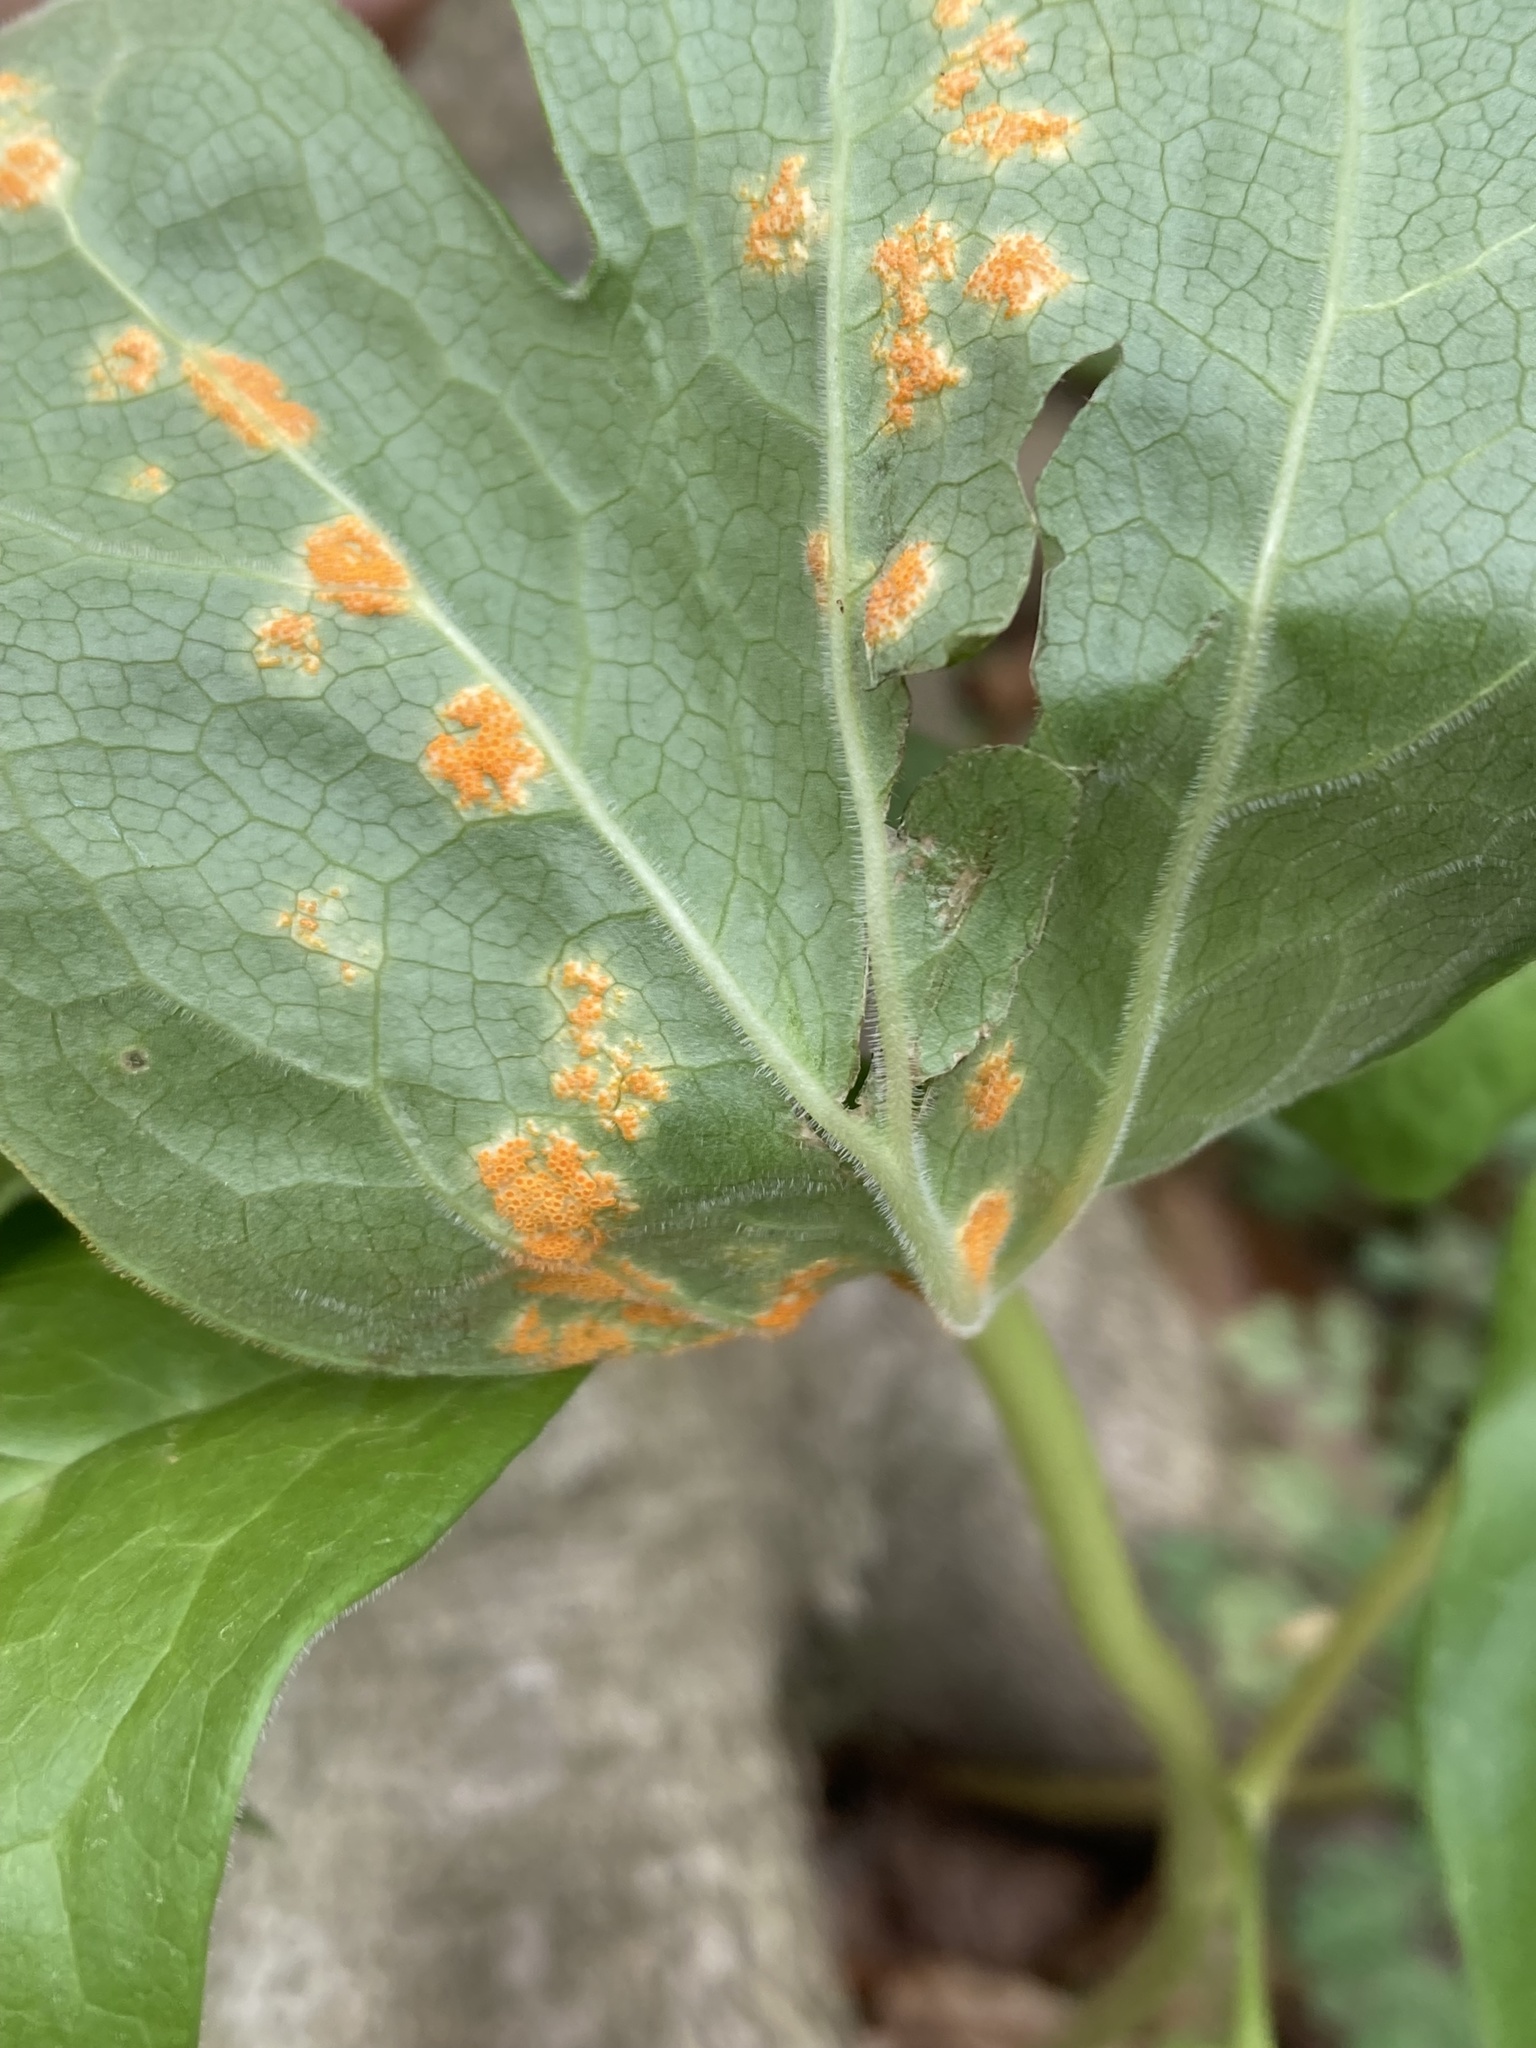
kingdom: Fungi
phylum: Basidiomycota
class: Pucciniomycetes
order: Pucciniales
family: Pucciniaceae
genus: Puccinia
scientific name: Puccinia podophylli
